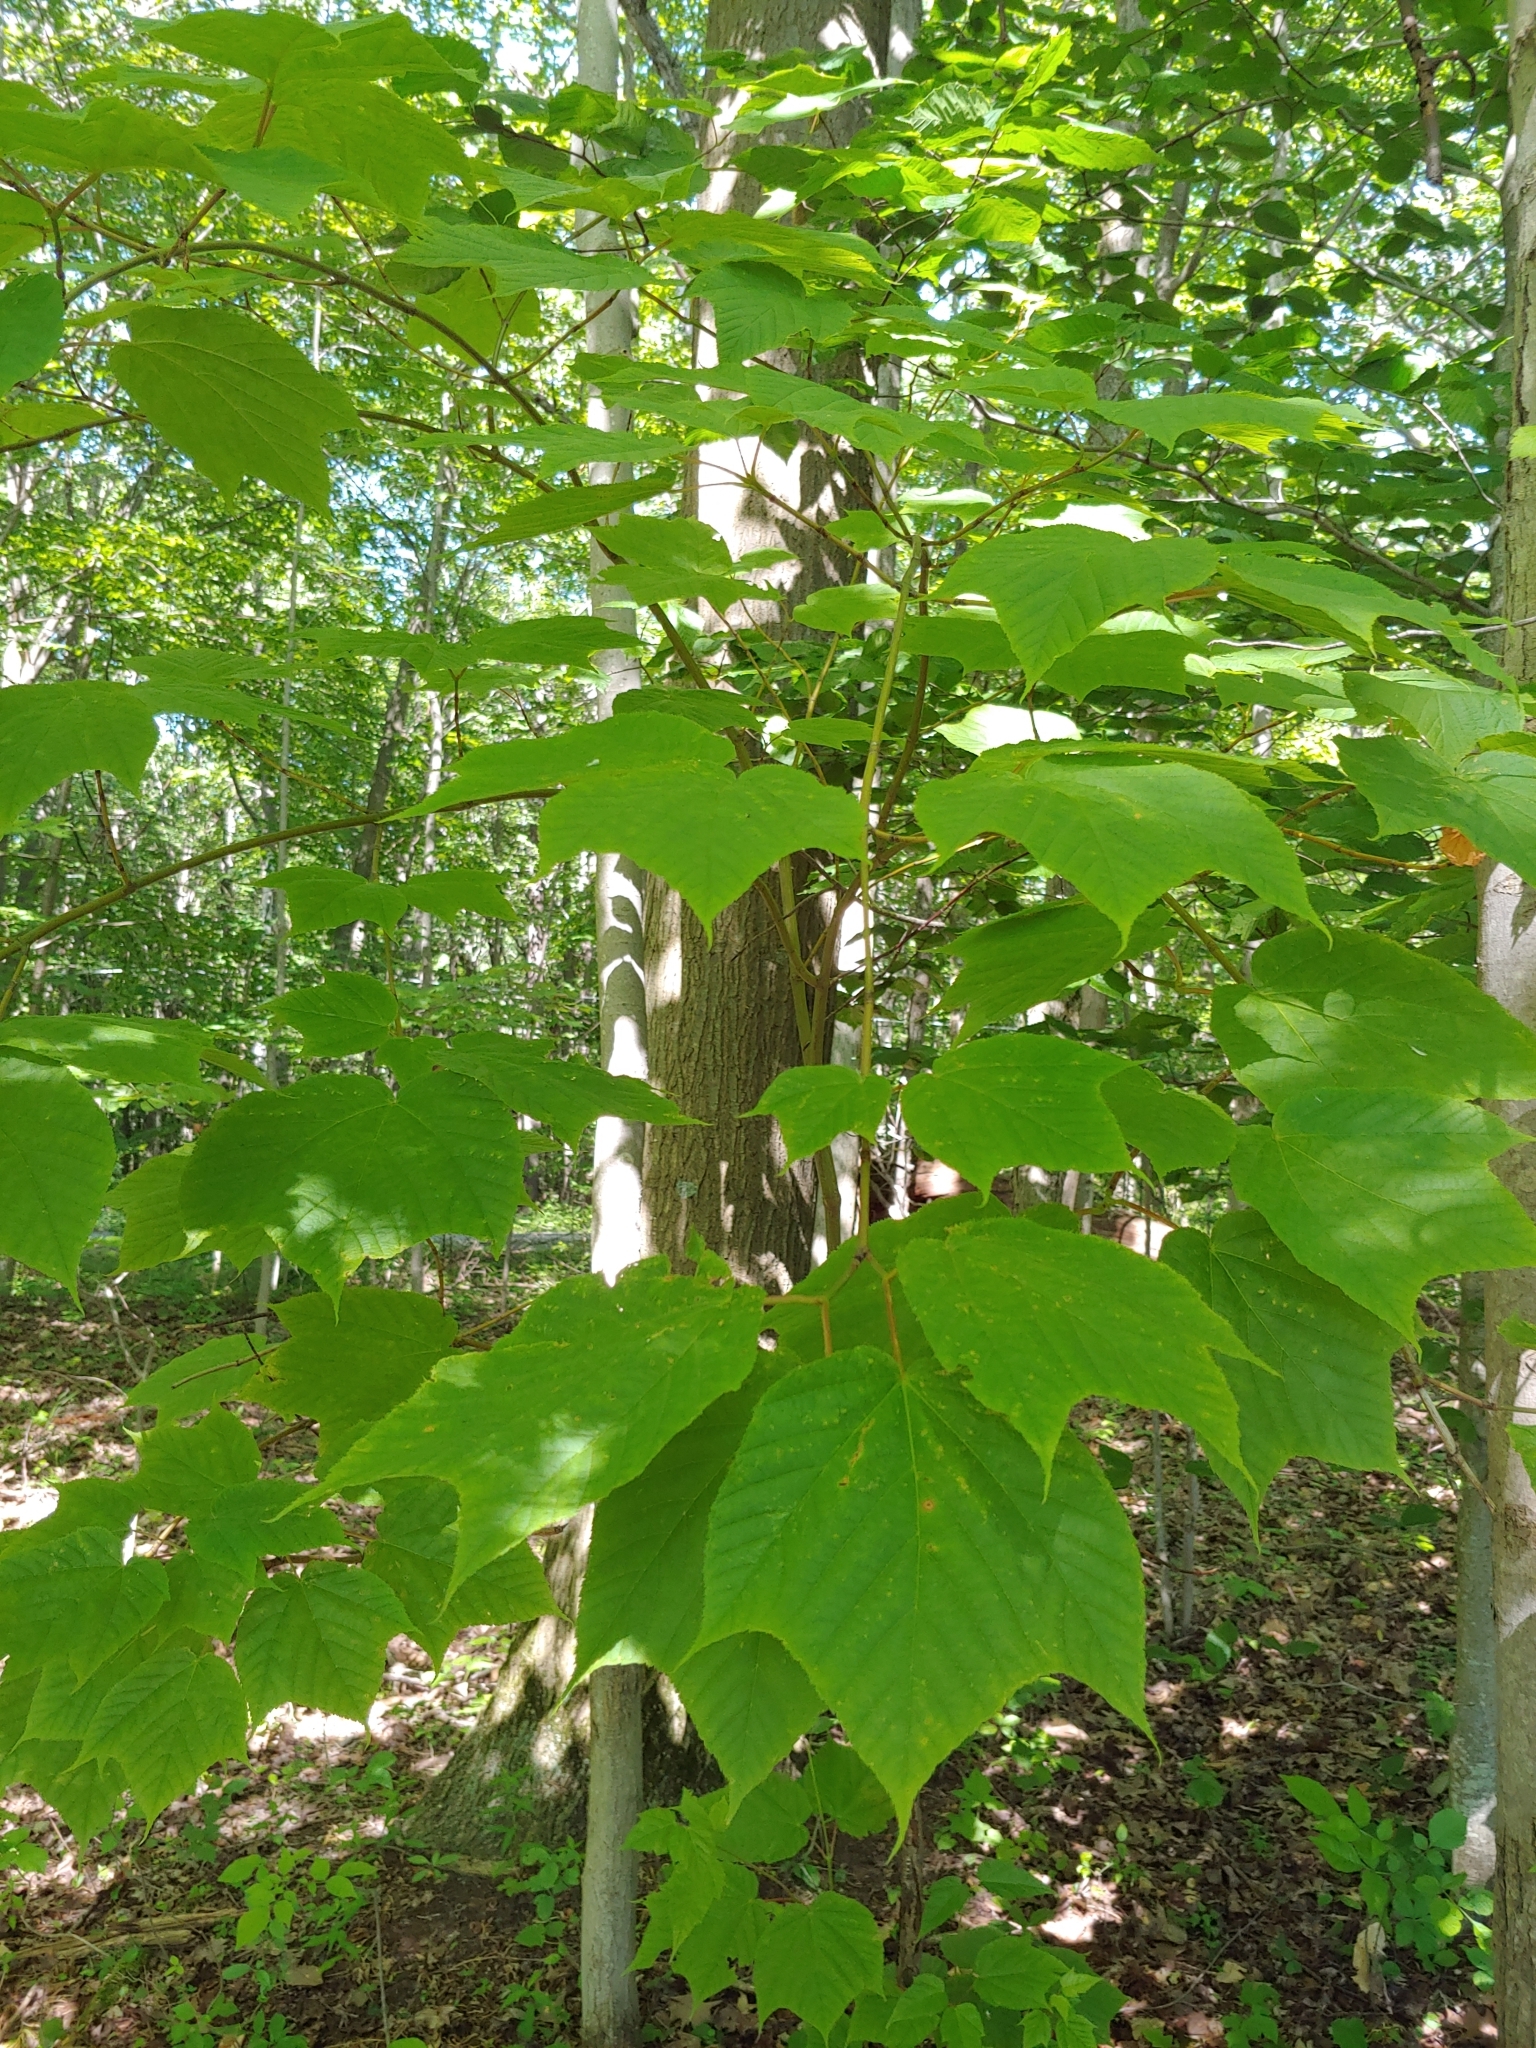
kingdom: Plantae
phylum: Tracheophyta
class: Magnoliopsida
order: Sapindales
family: Sapindaceae
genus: Acer
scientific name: Acer pensylvanicum
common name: Moosewood
